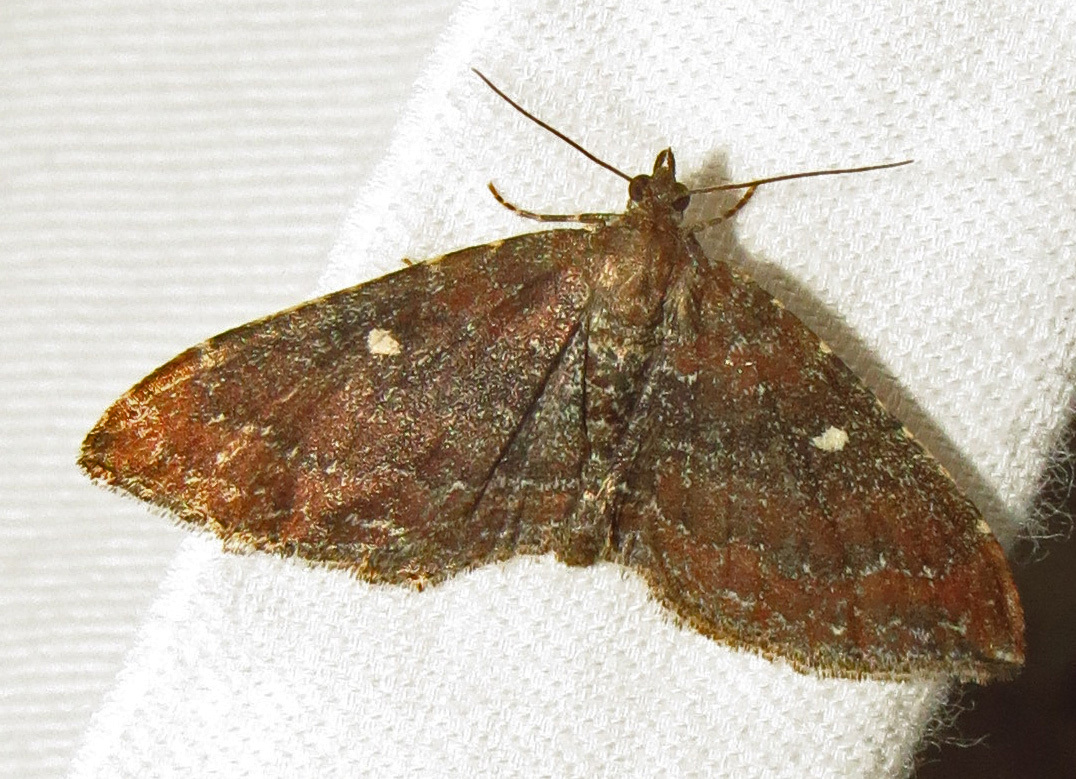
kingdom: Animalia
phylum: Arthropoda
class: Insecta
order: Lepidoptera
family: Geometridae
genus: Orthonama
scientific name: Orthonama obstipata
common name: The gem
